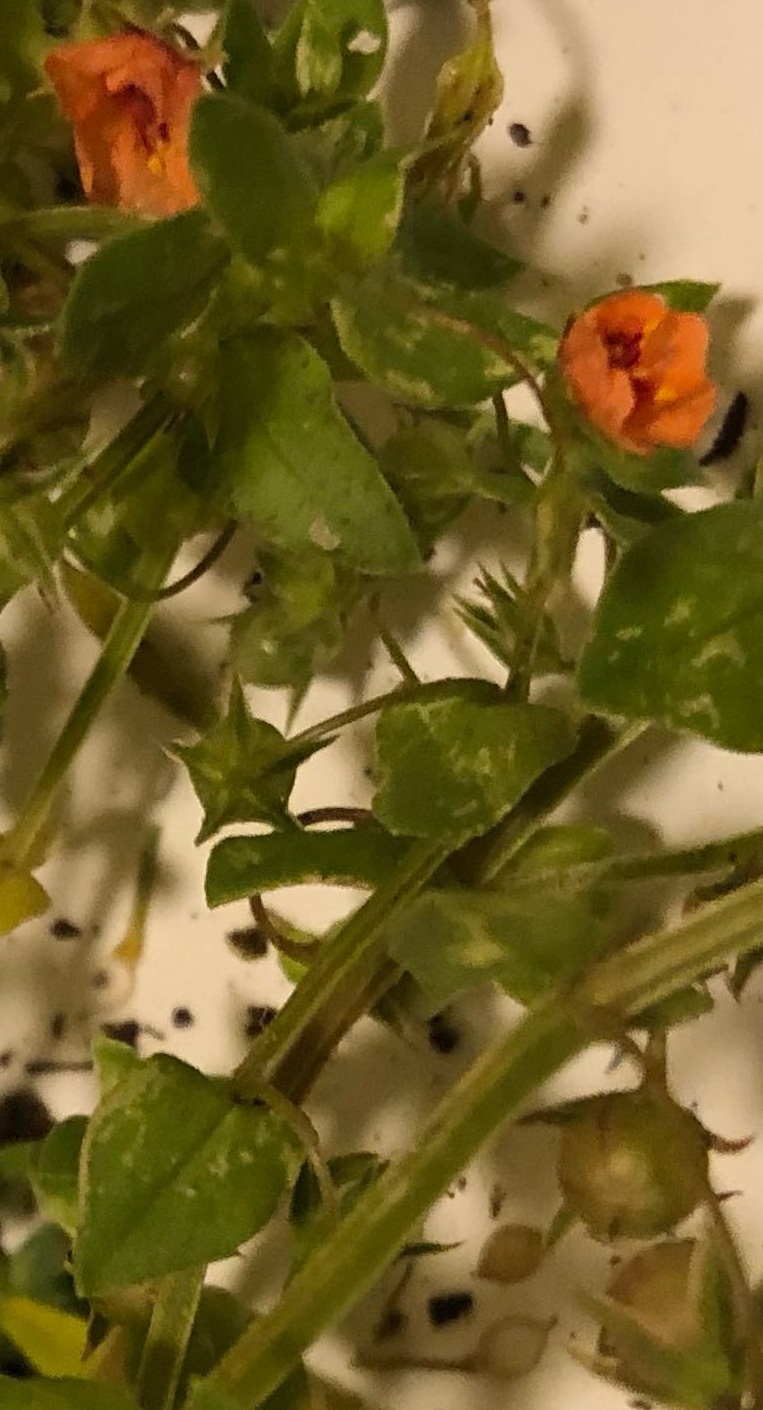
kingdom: Plantae
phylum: Tracheophyta
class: Magnoliopsida
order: Ericales
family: Primulaceae
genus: Lysimachia
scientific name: Lysimachia arvensis
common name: Scarlet pimpernel
